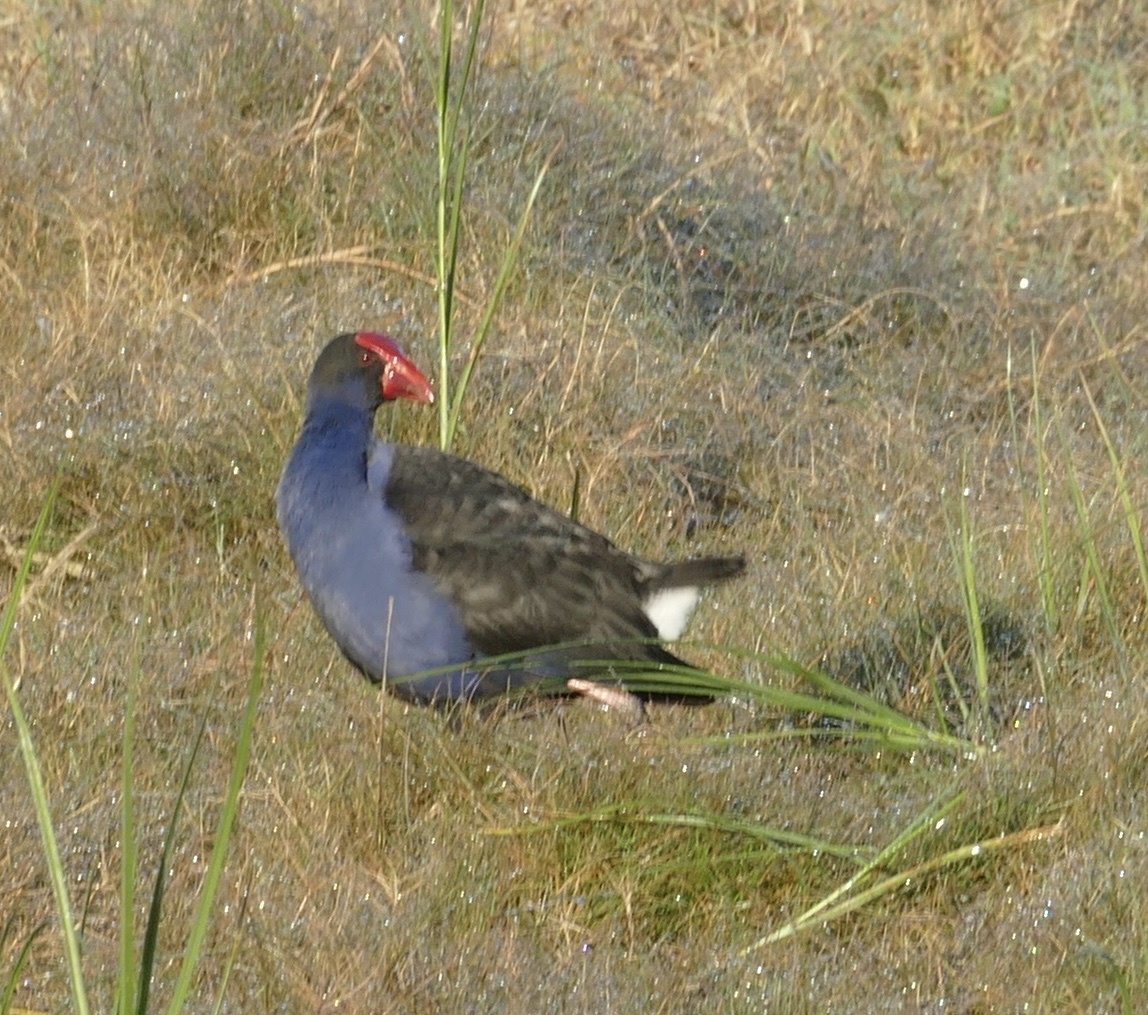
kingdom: Animalia
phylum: Chordata
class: Aves
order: Gruiformes
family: Rallidae
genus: Porphyrio
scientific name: Porphyrio melanotus
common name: Australasian swamphen
